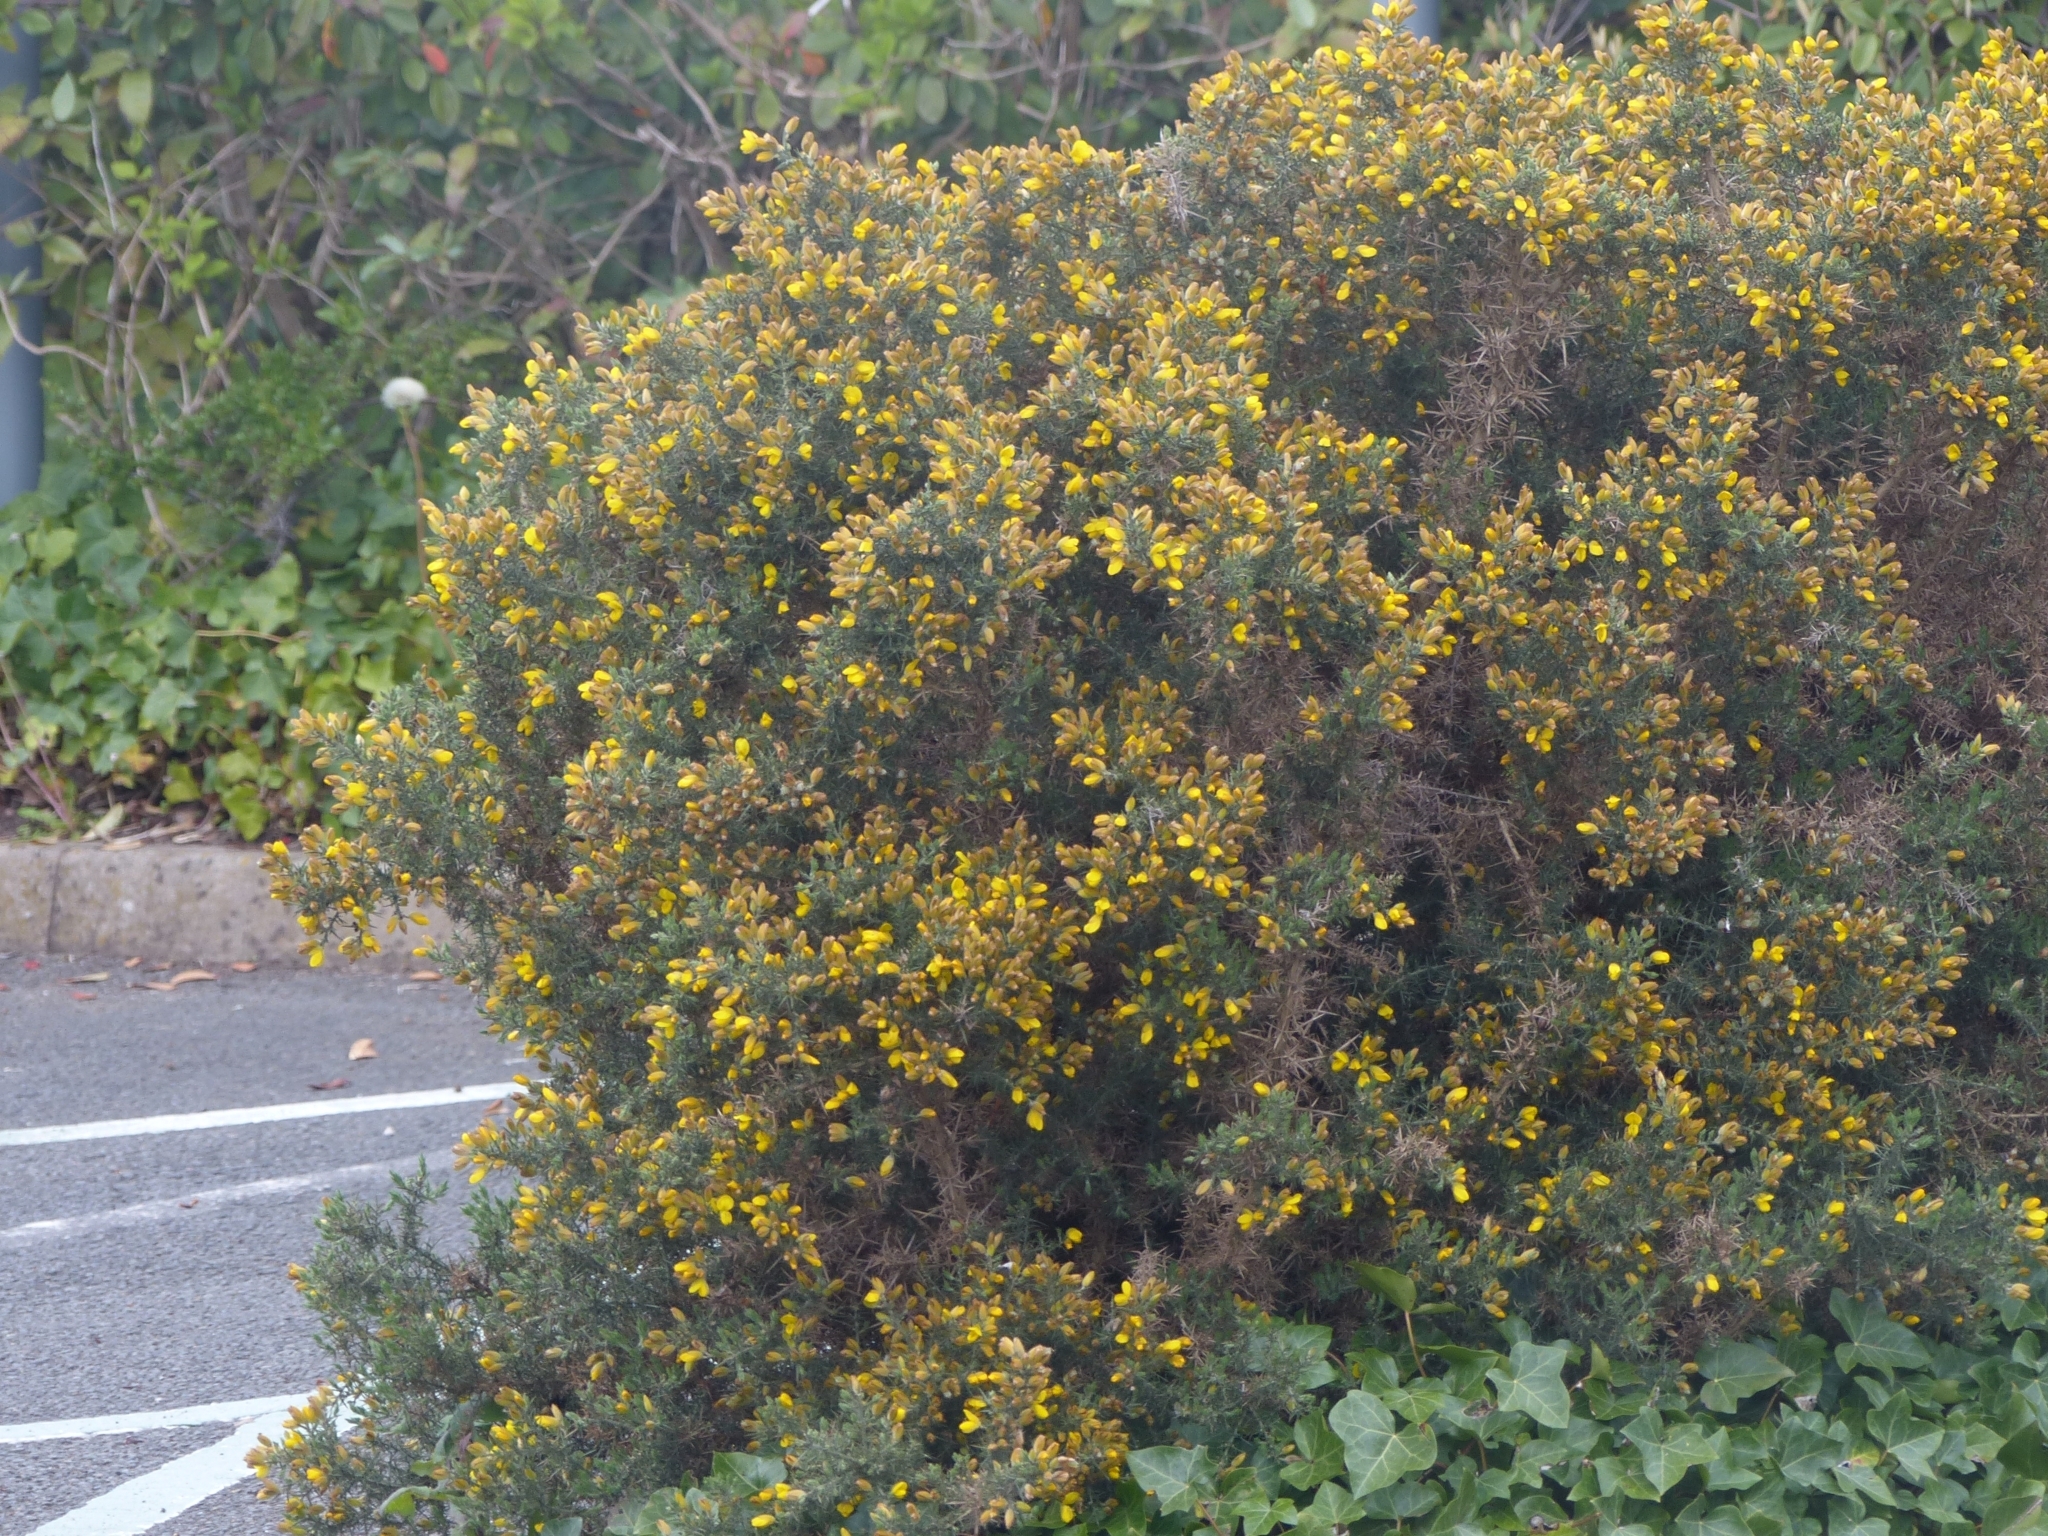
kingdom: Plantae
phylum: Tracheophyta
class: Magnoliopsida
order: Fabales
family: Fabaceae
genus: Ulex
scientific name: Ulex europaeus
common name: Common gorse
